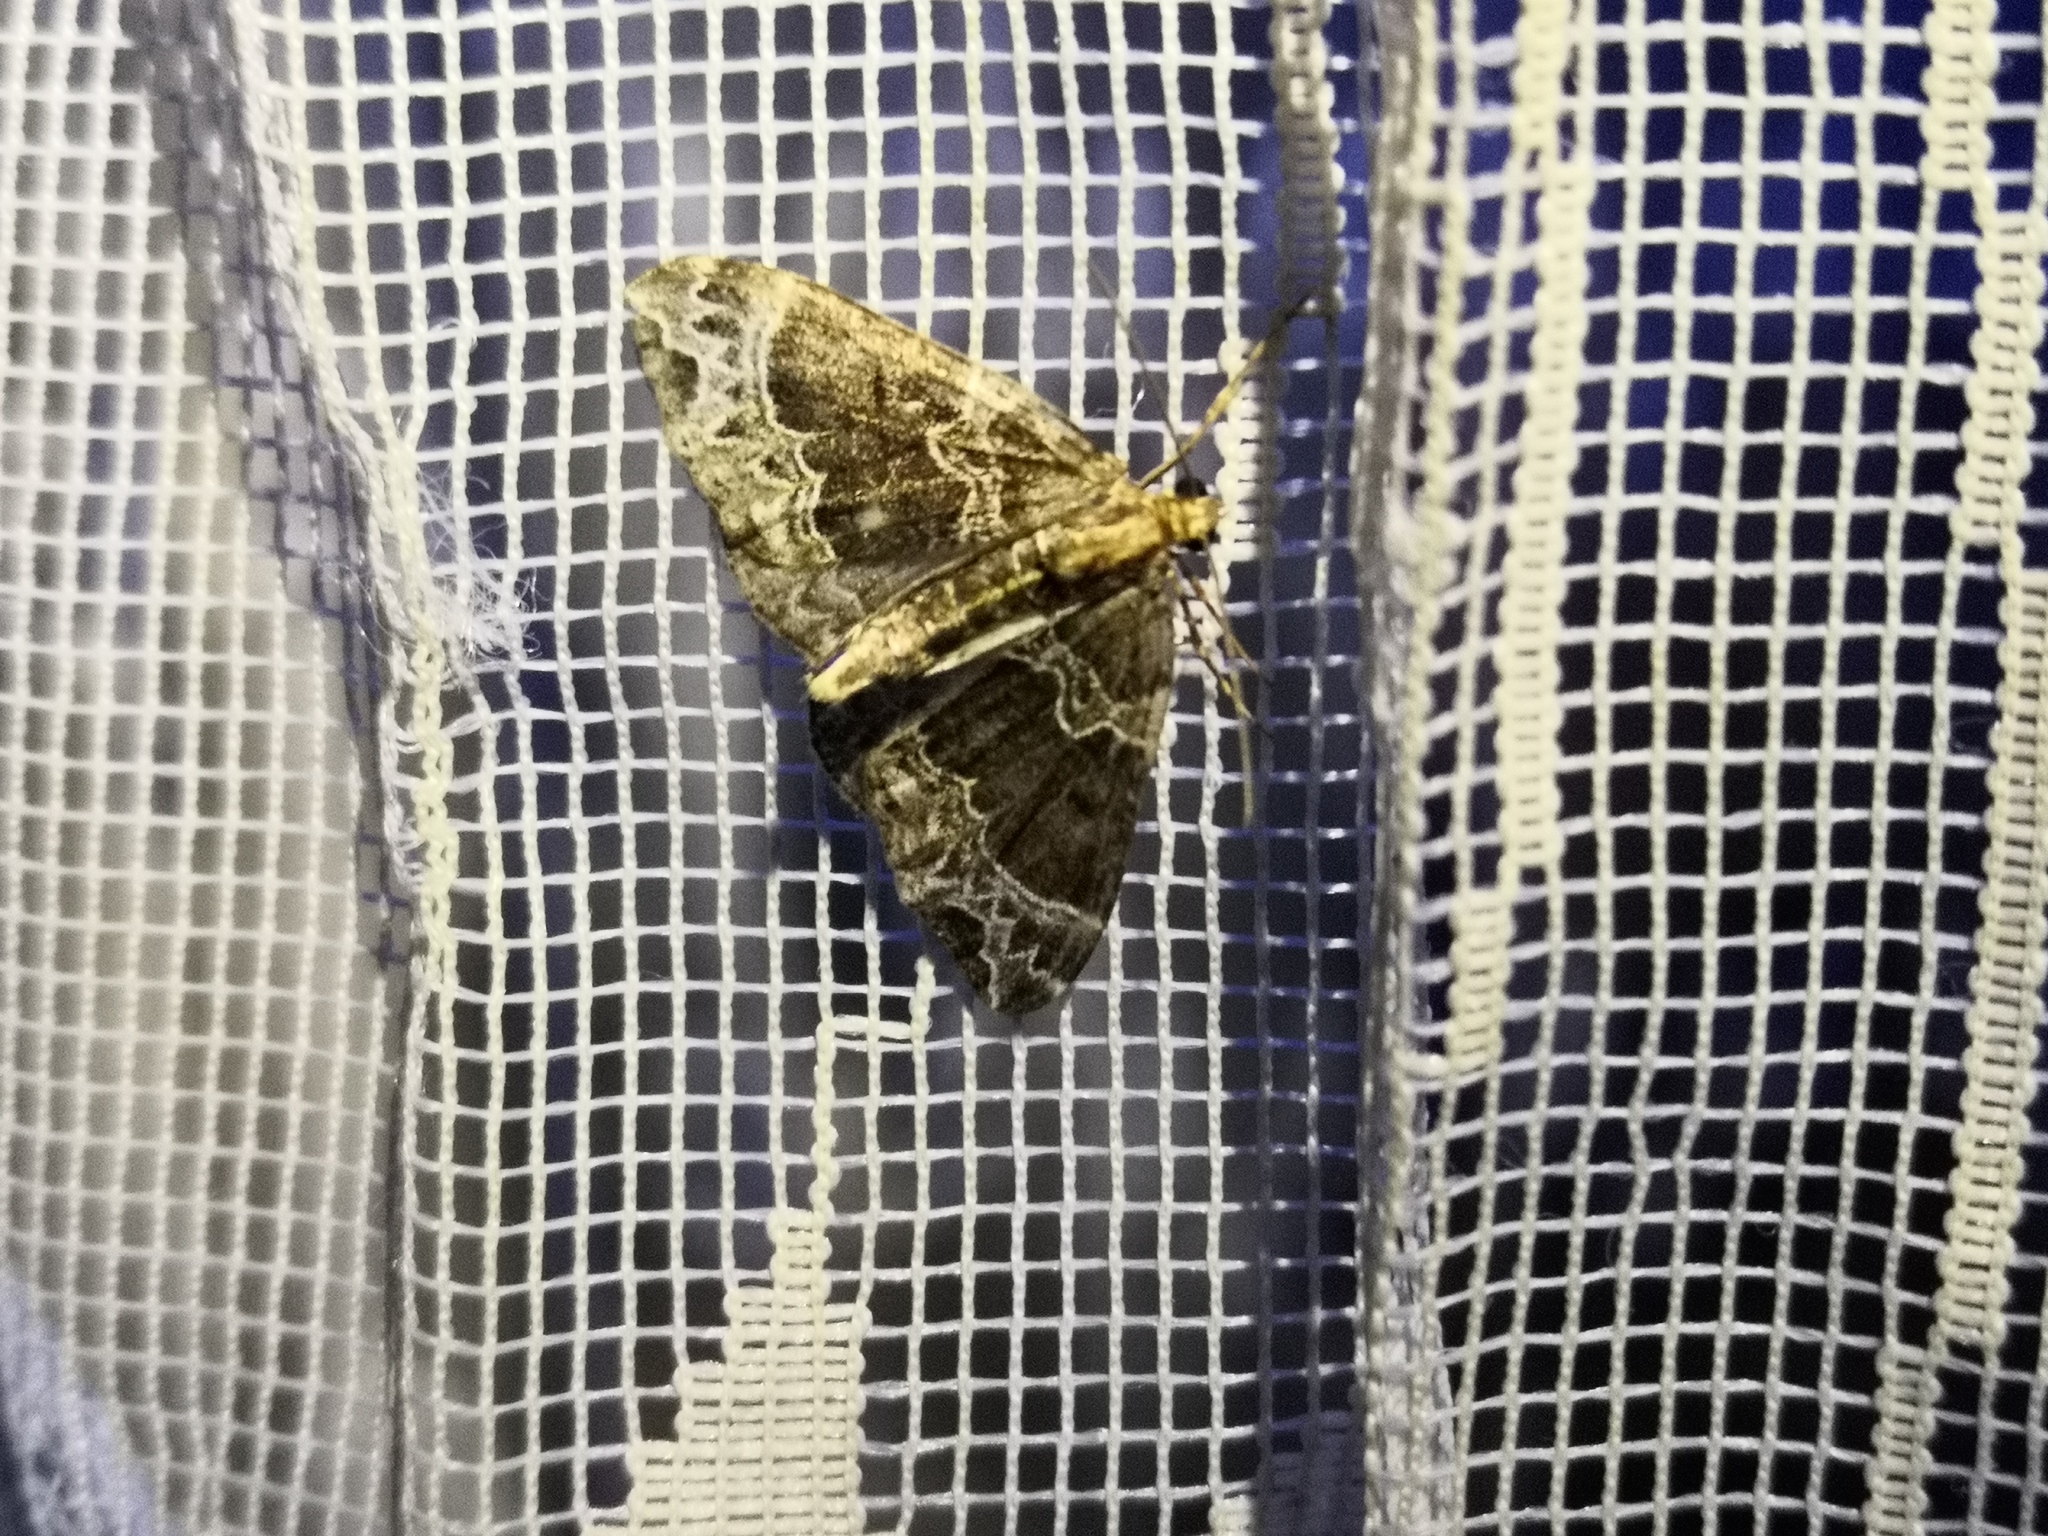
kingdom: Animalia
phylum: Arthropoda
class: Insecta
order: Lepidoptera
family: Geometridae
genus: Ecliptopera
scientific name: Ecliptopera silaceata
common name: Small phoenix
